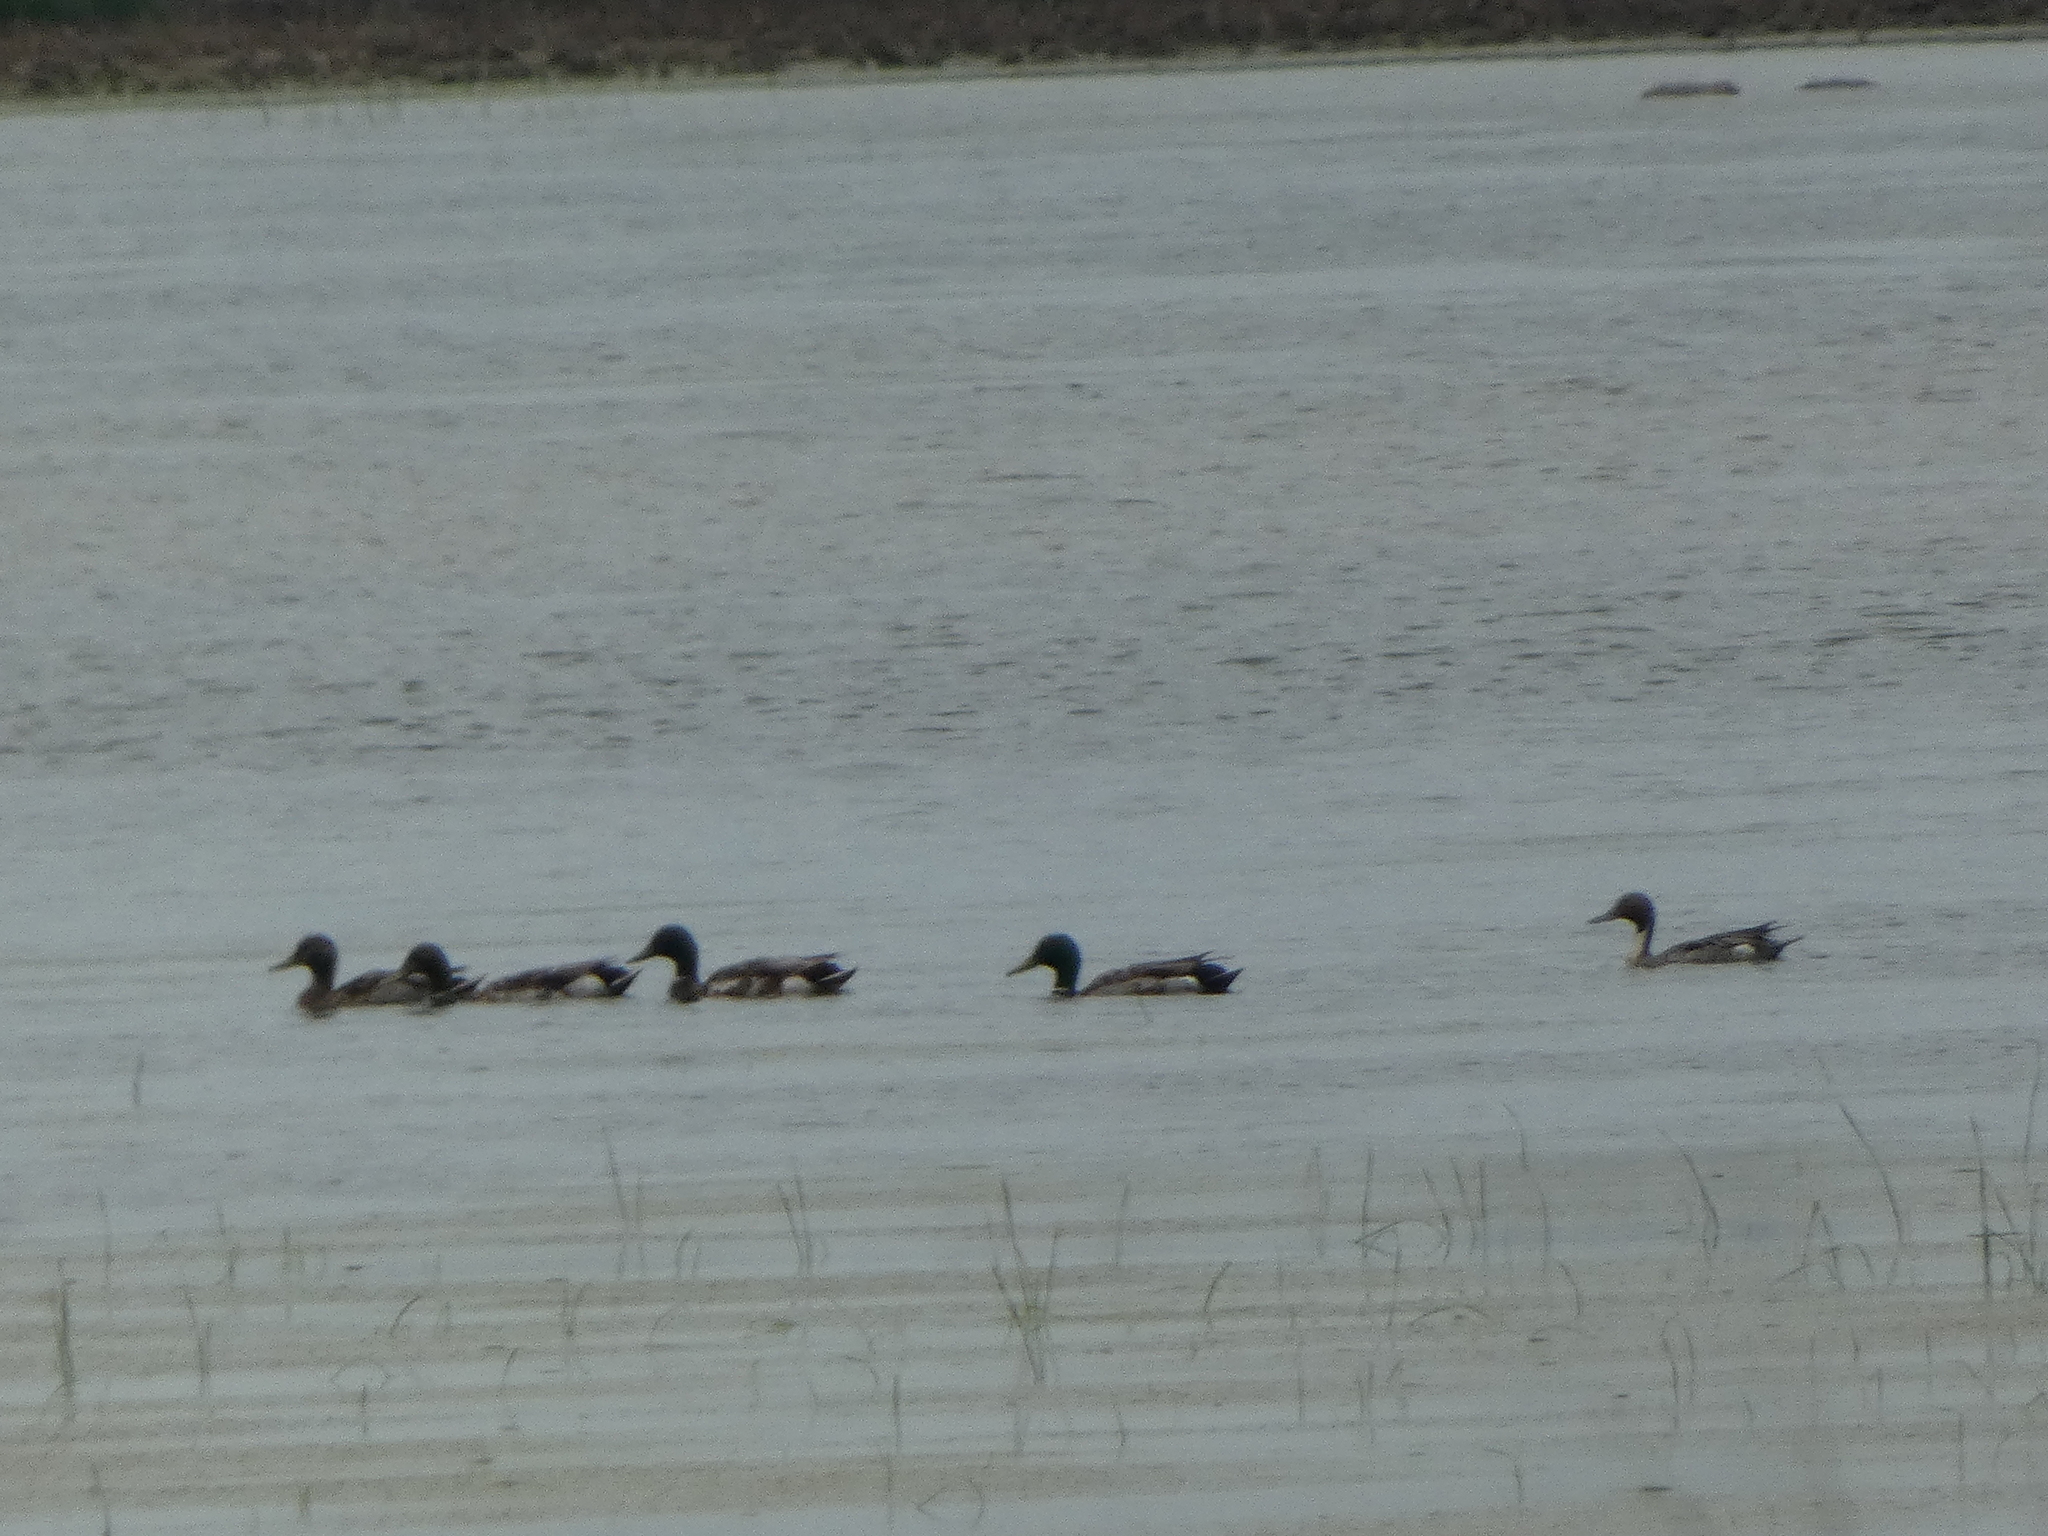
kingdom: Animalia
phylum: Chordata
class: Aves
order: Anseriformes
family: Anatidae
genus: Spatula
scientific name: Spatula clypeata
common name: Northern shoveler
